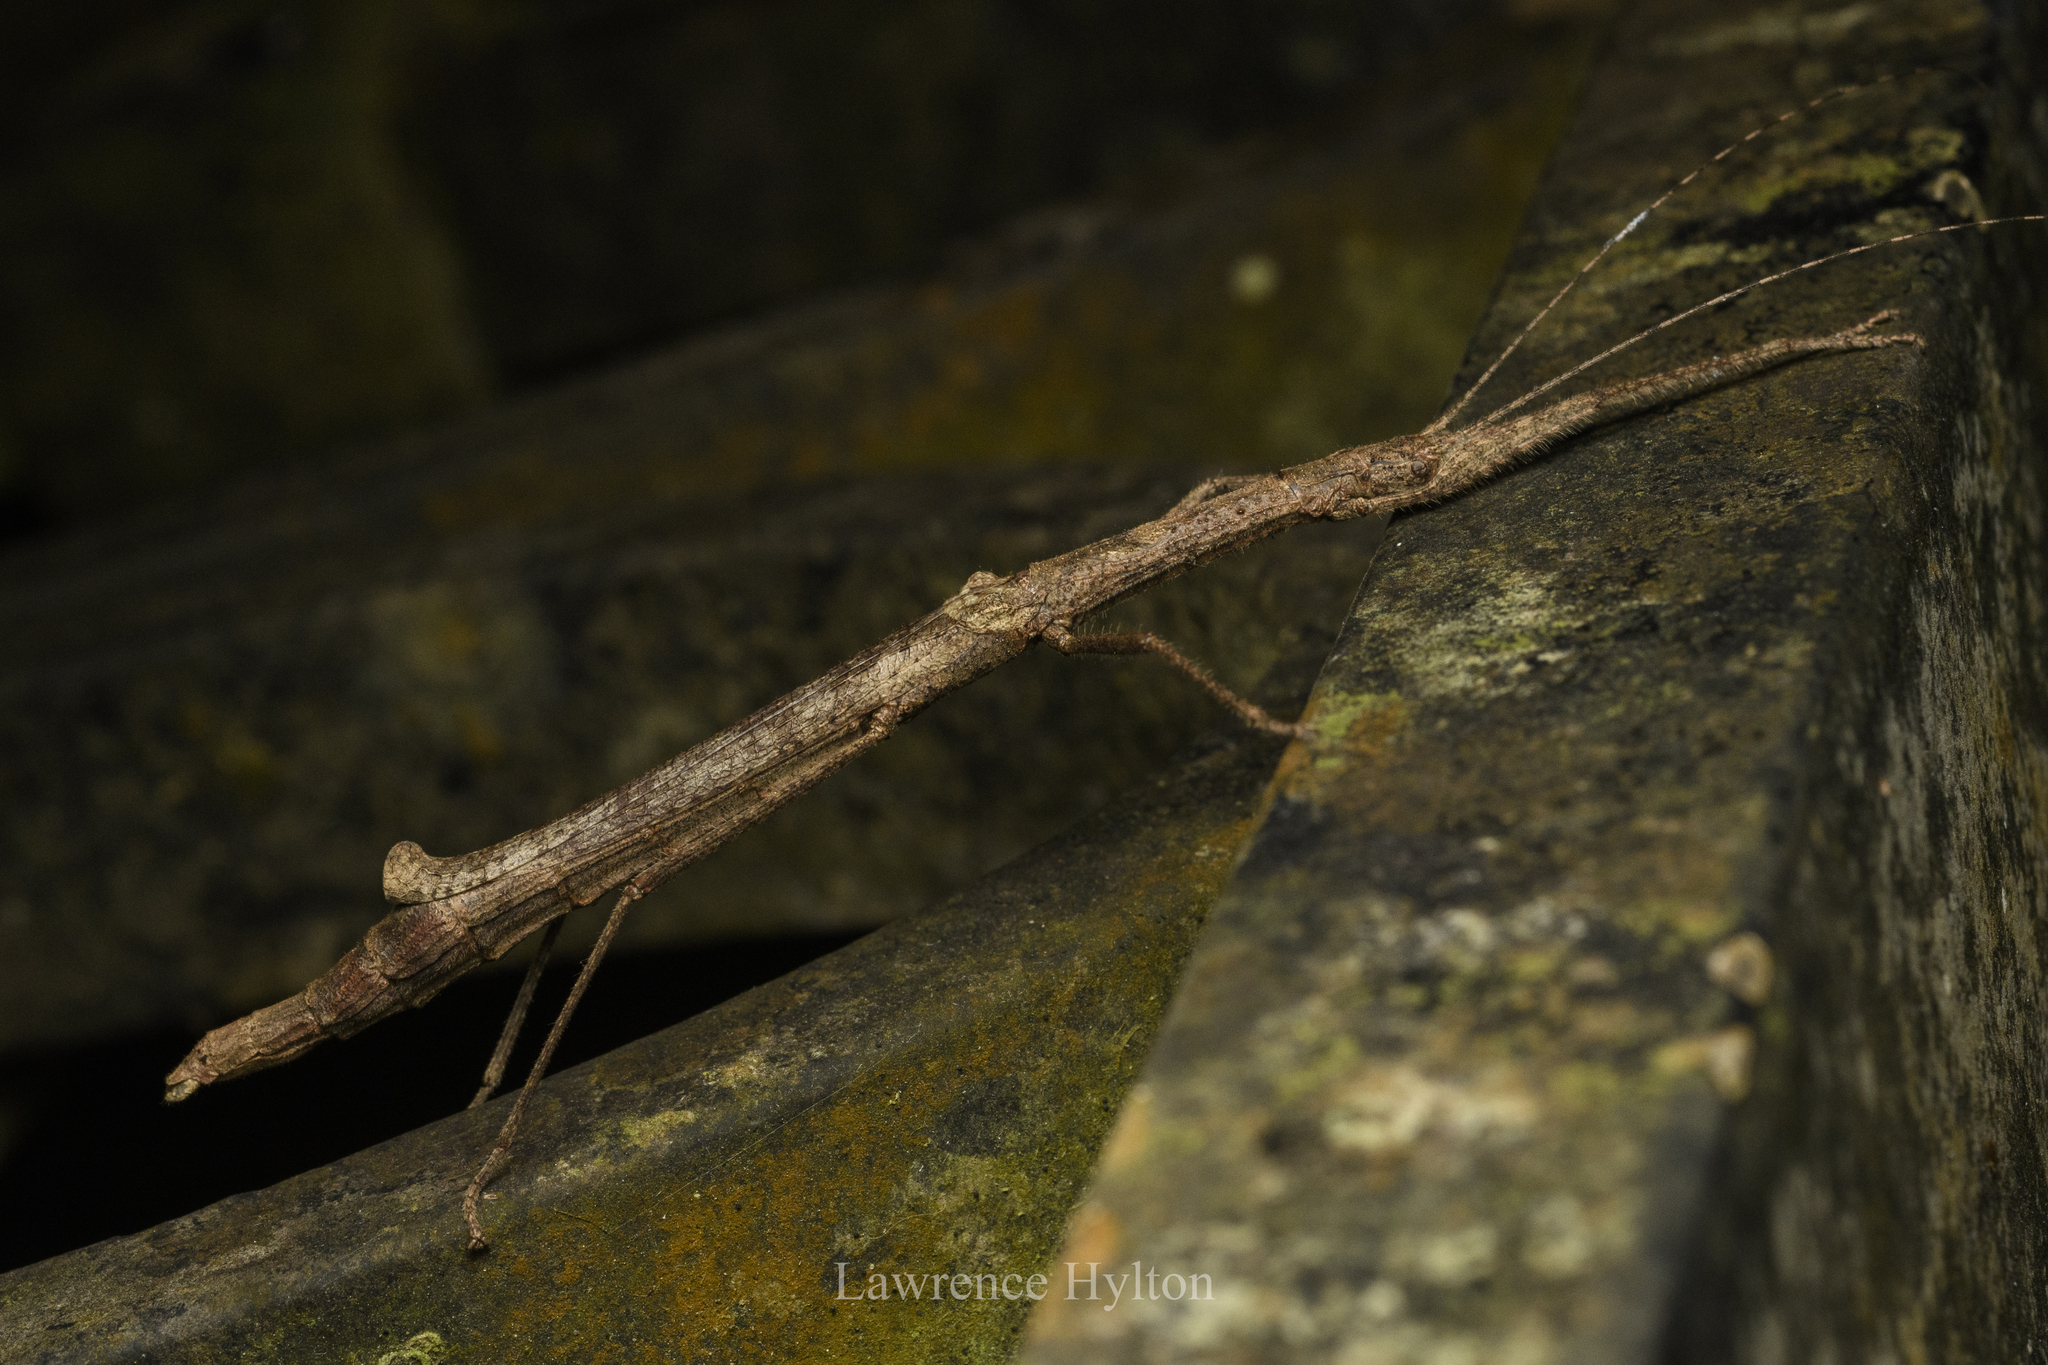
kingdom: Animalia
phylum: Arthropoda
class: Insecta
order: Phasmida
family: Lonchodidae
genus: Planososibia
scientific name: Planososibia truncata
